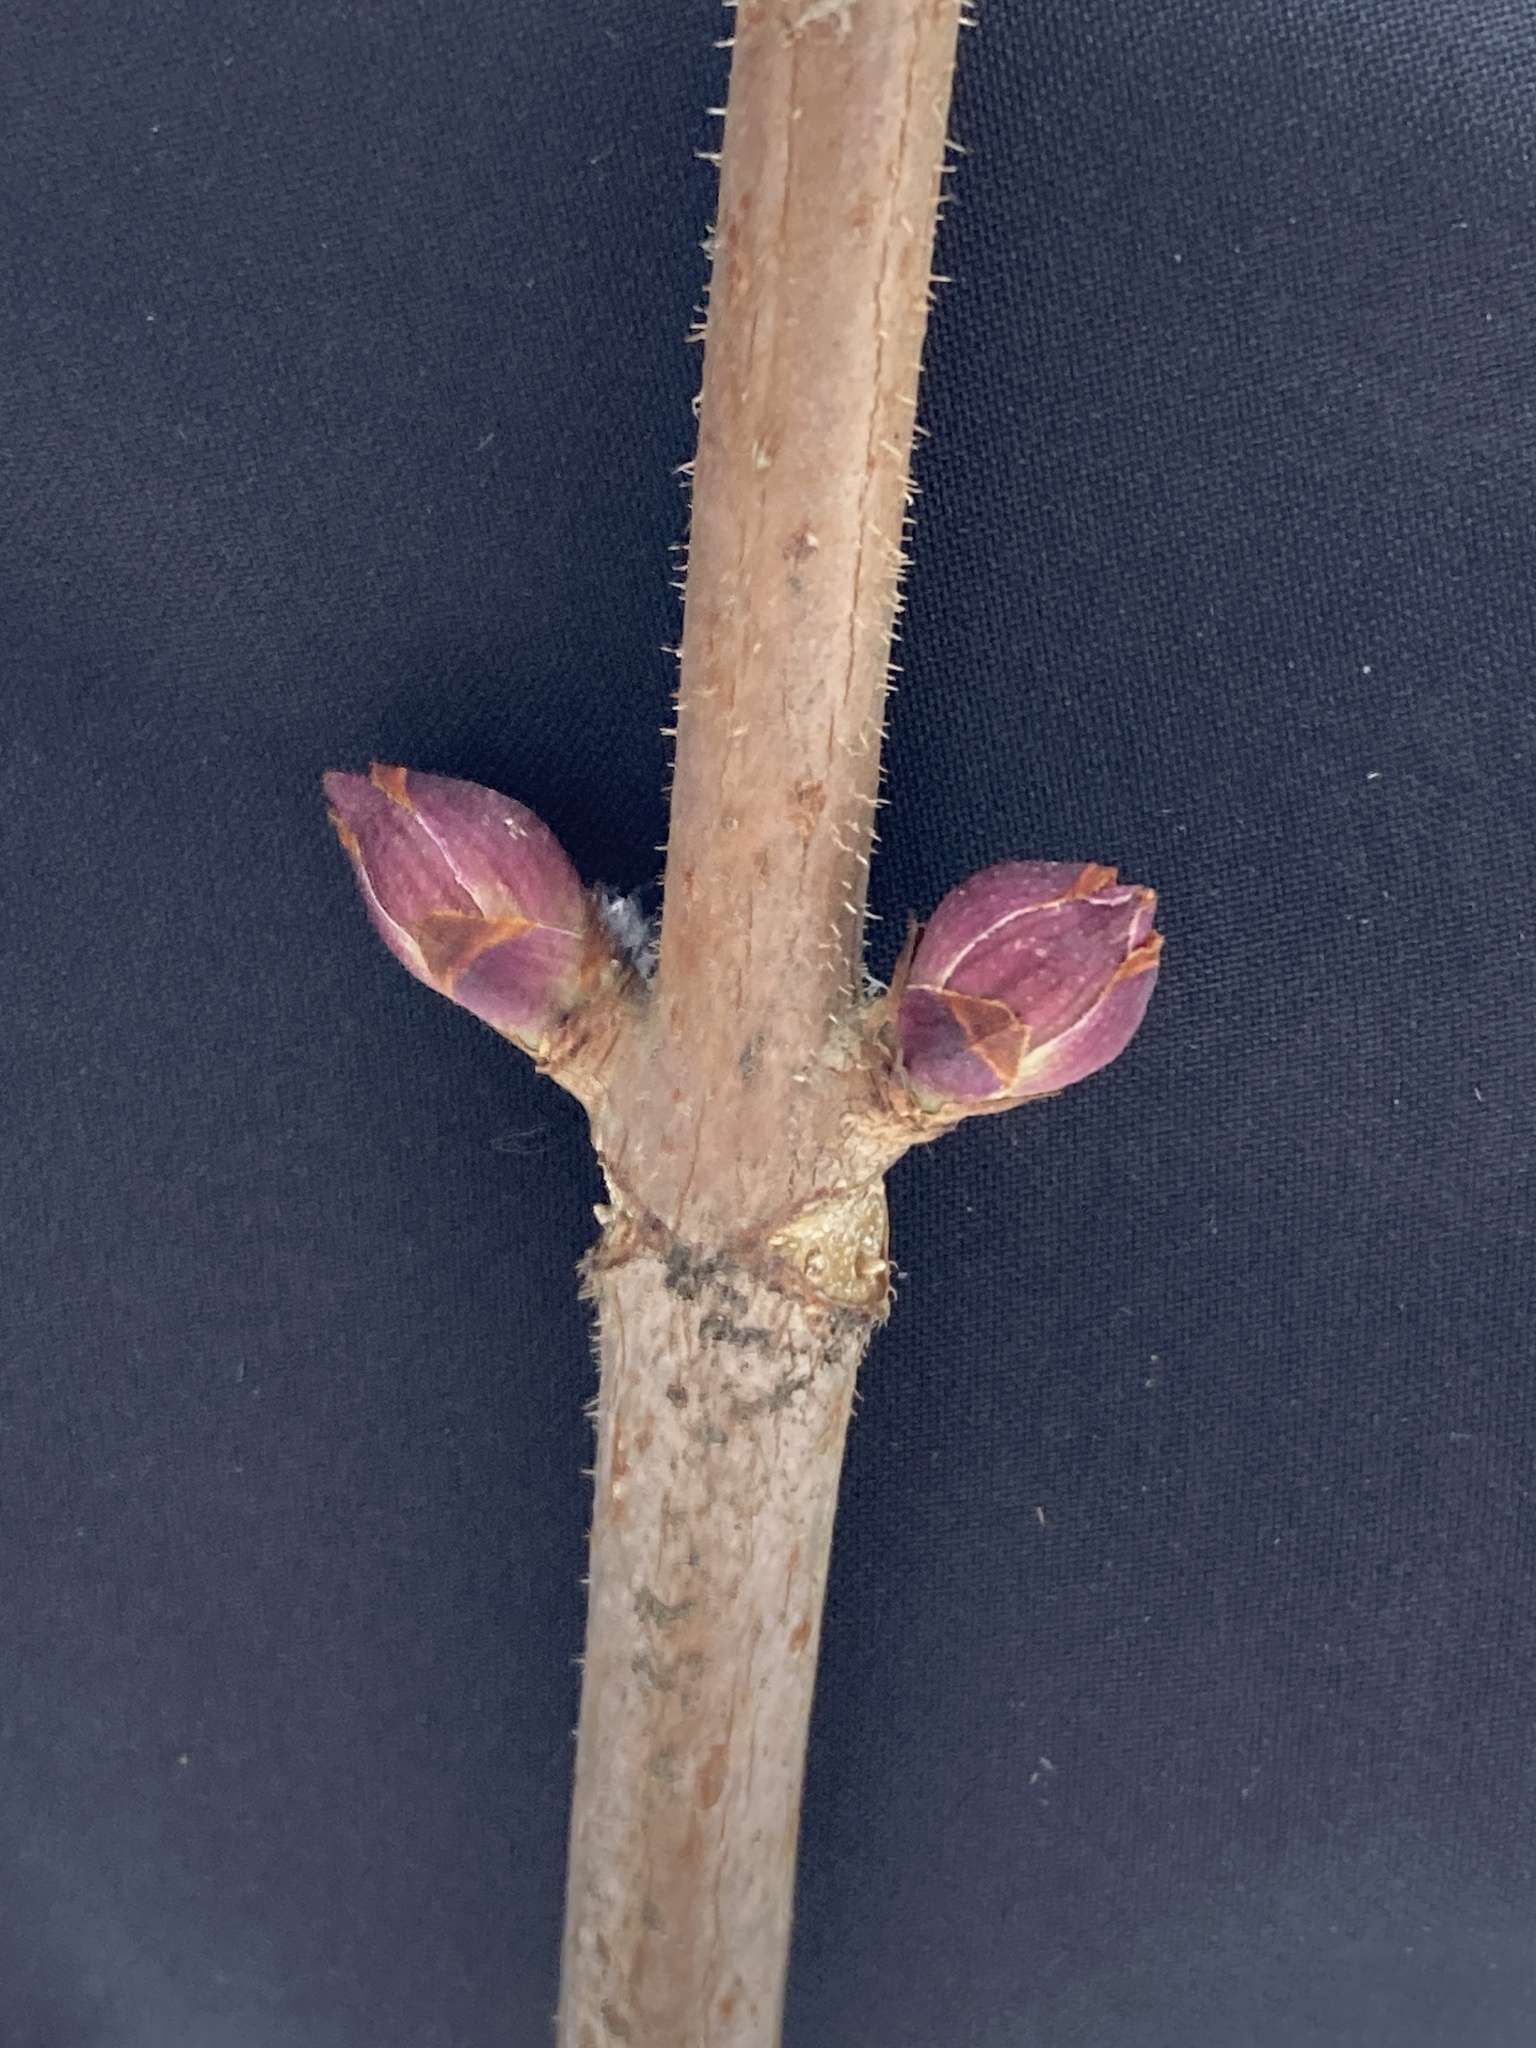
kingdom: Plantae
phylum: Tracheophyta
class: Magnoliopsida
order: Dipsacales
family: Viburnaceae
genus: Sambucus
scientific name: Sambucus racemosa
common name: Red-berried elder
